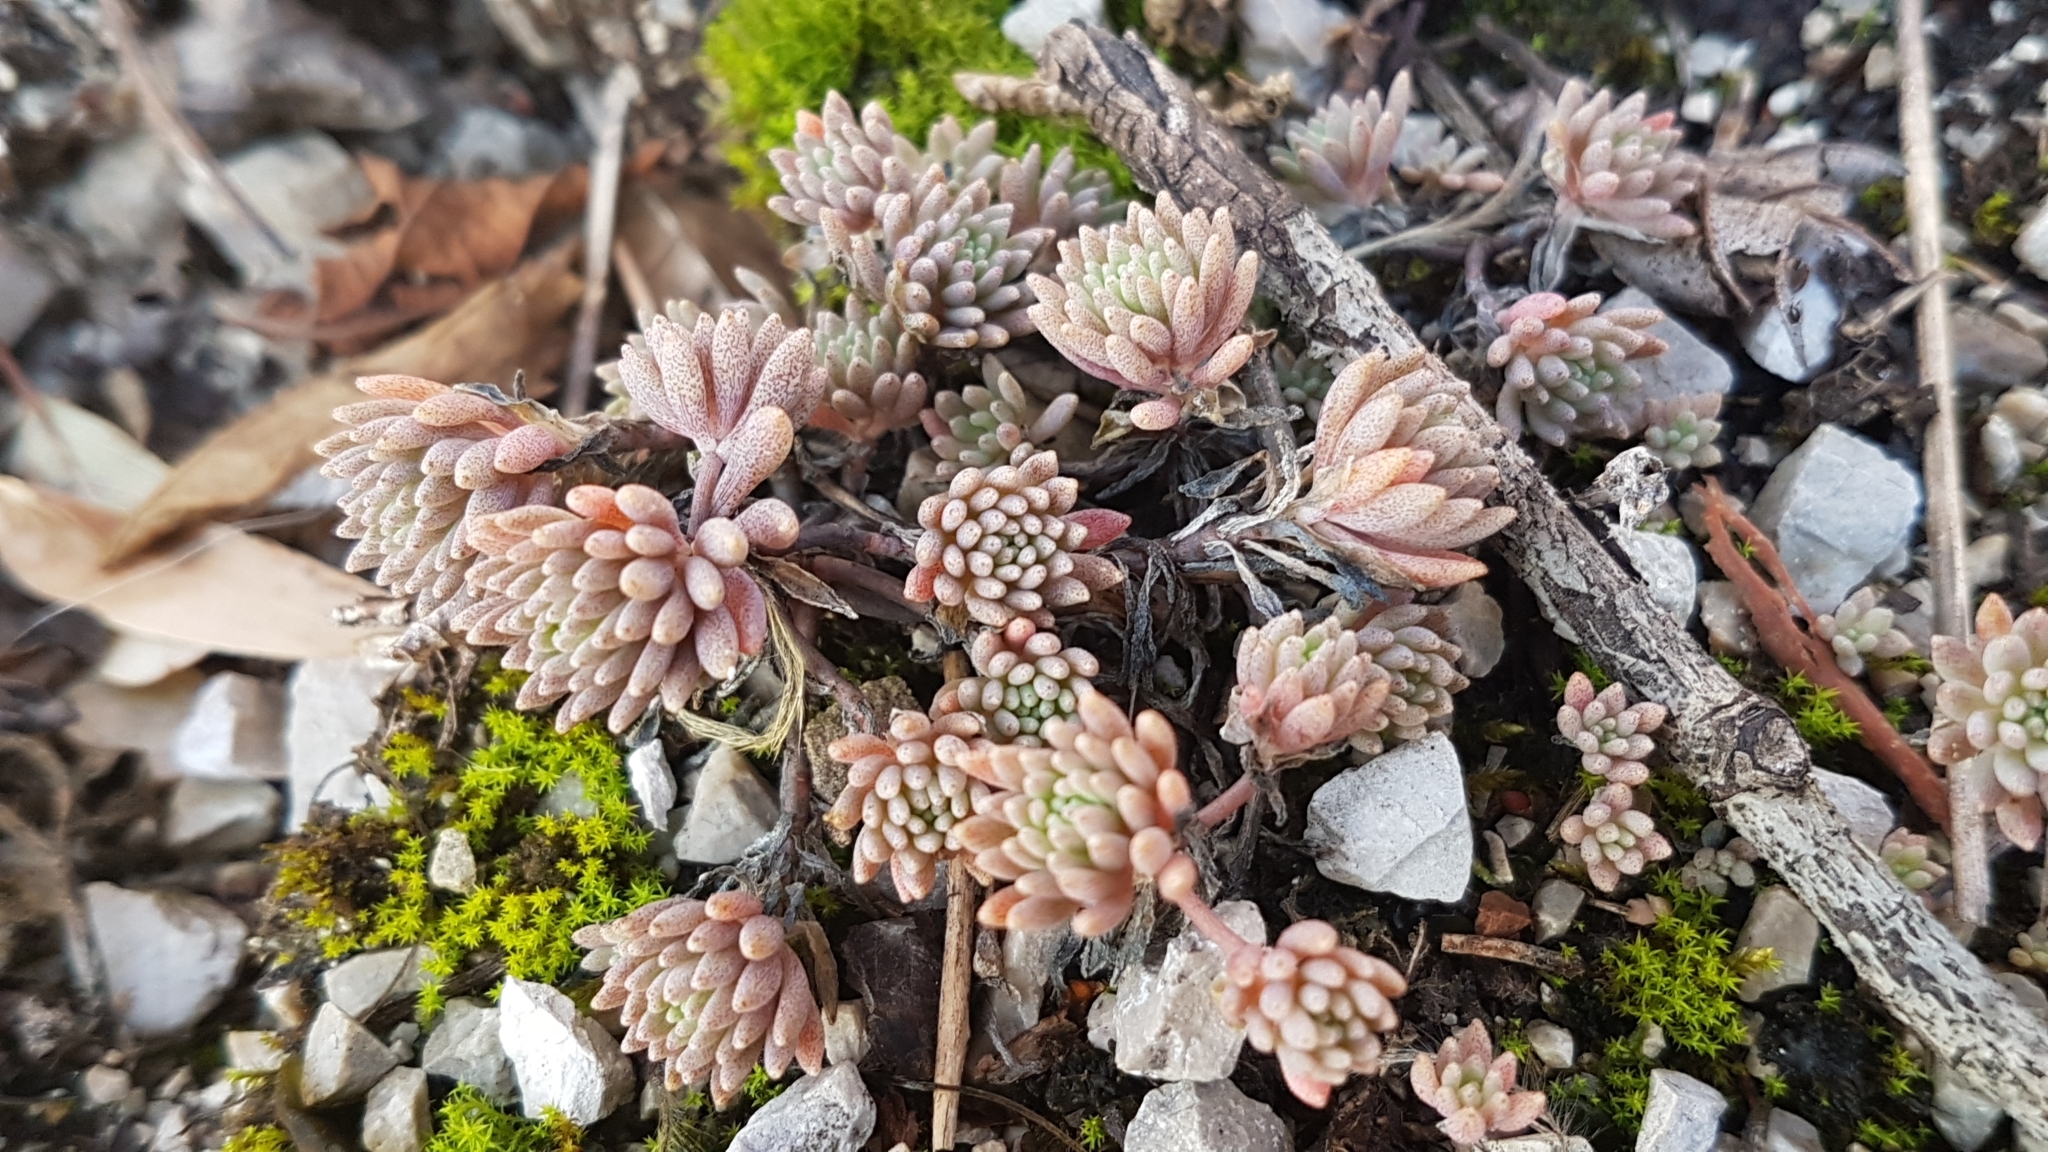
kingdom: Plantae
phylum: Tracheophyta
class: Magnoliopsida
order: Saxifragales
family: Crassulaceae
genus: Sedum
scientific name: Sedum hispanicum
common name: Spanish stonecrop
